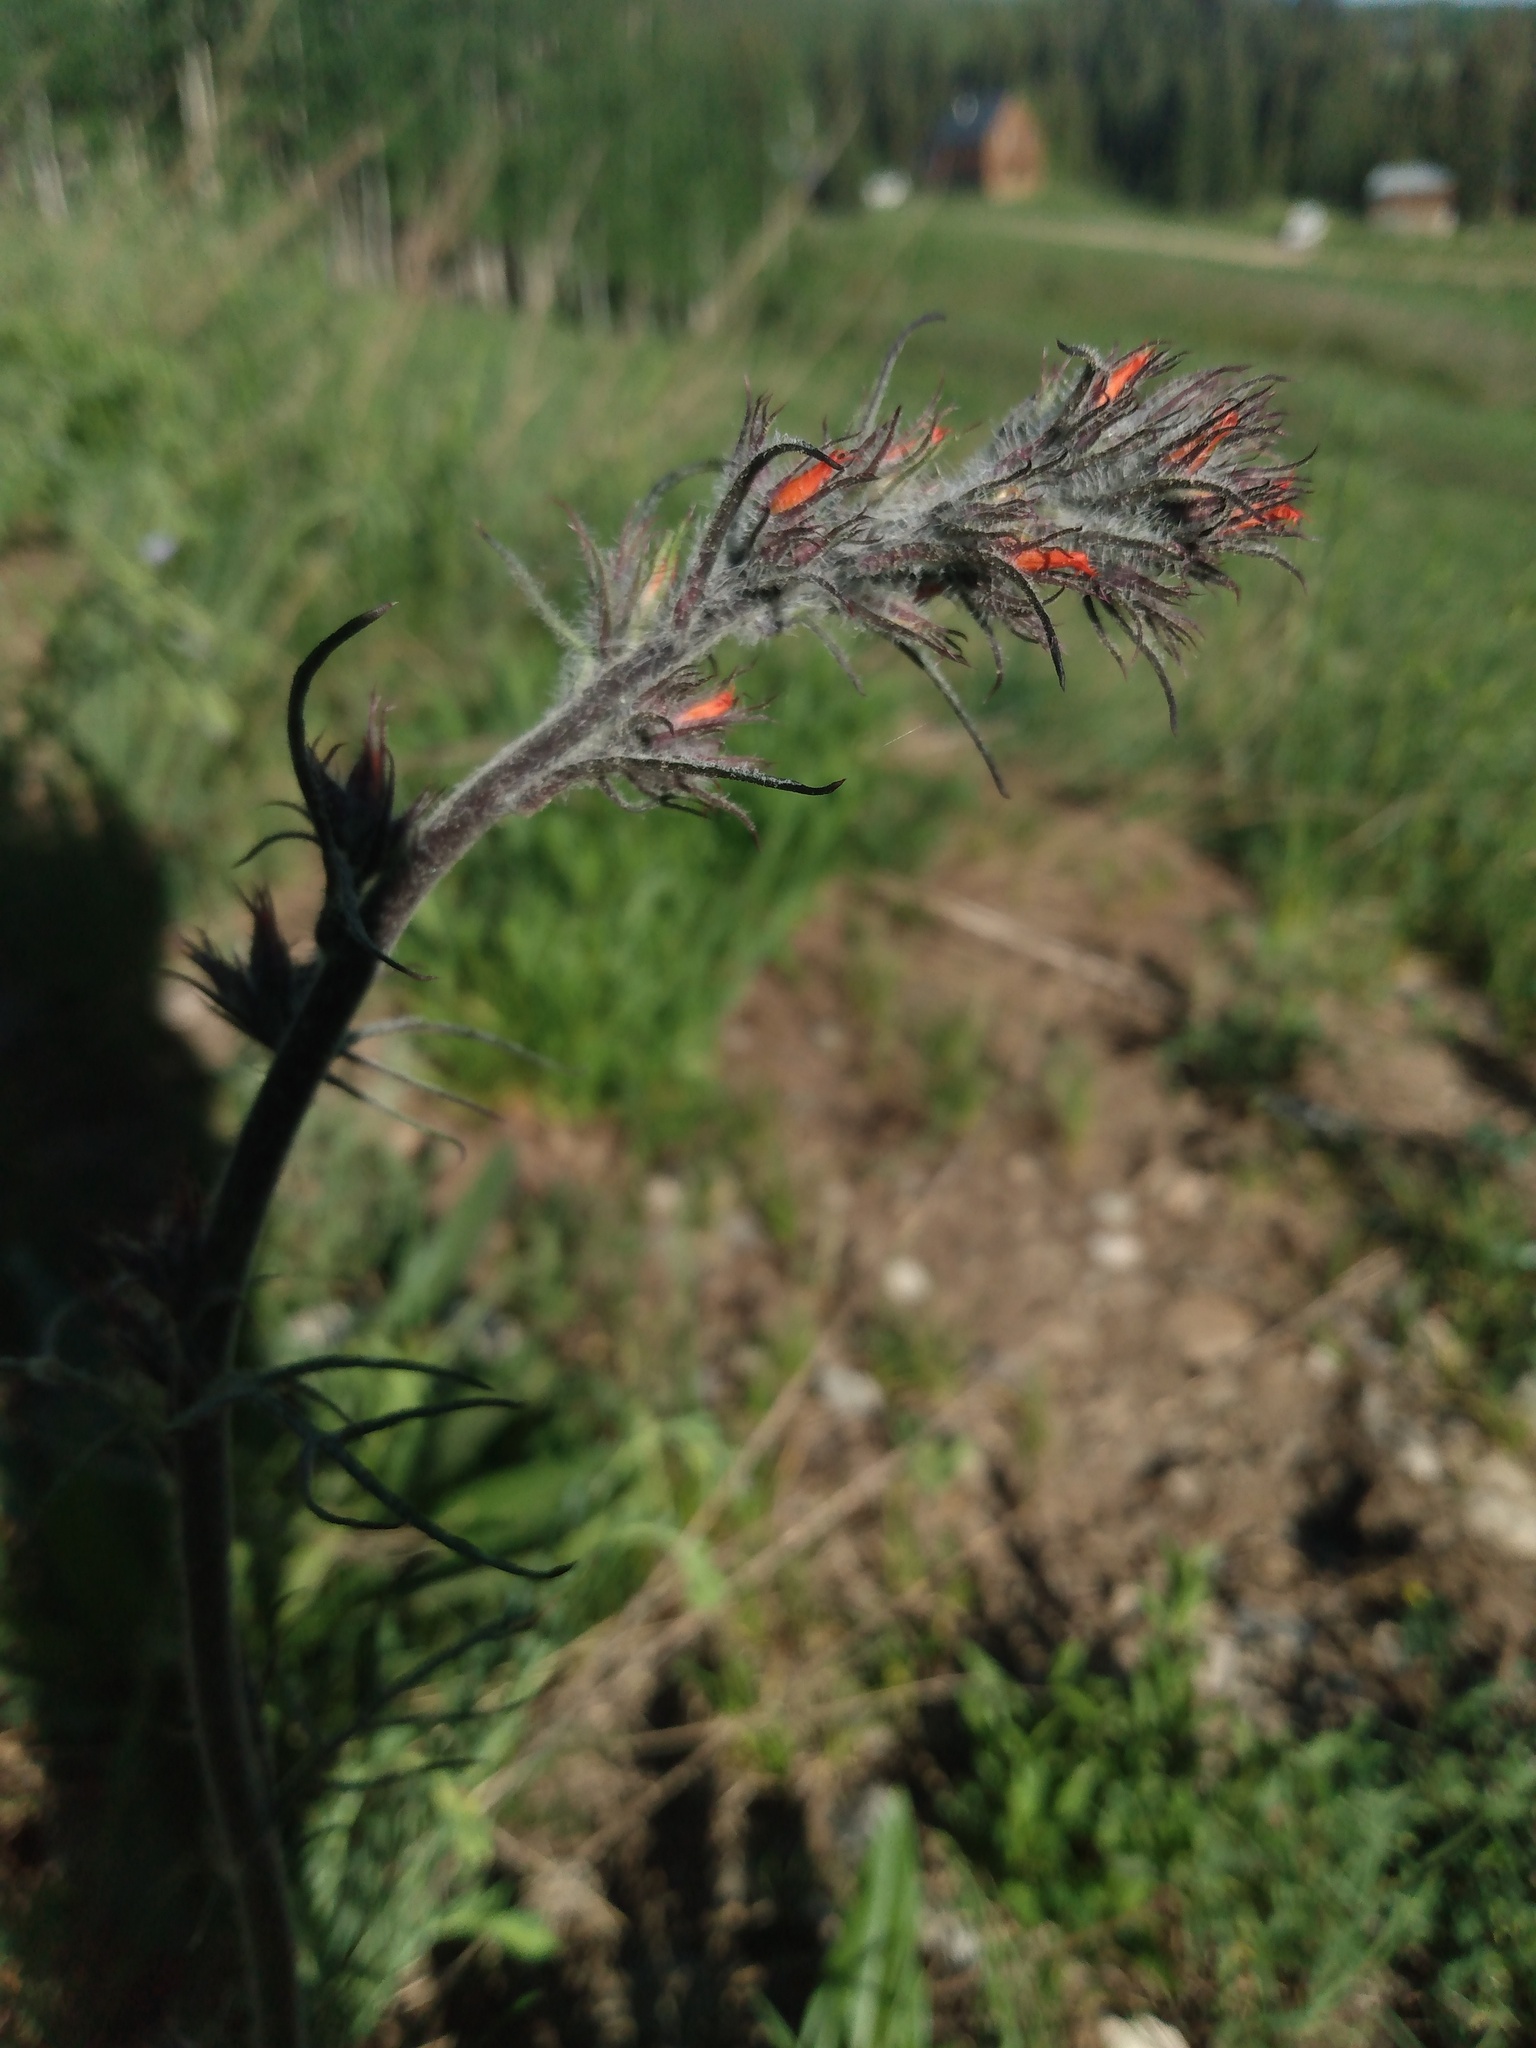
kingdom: Plantae
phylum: Tracheophyta
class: Magnoliopsida
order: Ericales
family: Polemoniaceae
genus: Ipomopsis
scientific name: Ipomopsis aggregata
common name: Scarlet gilia
